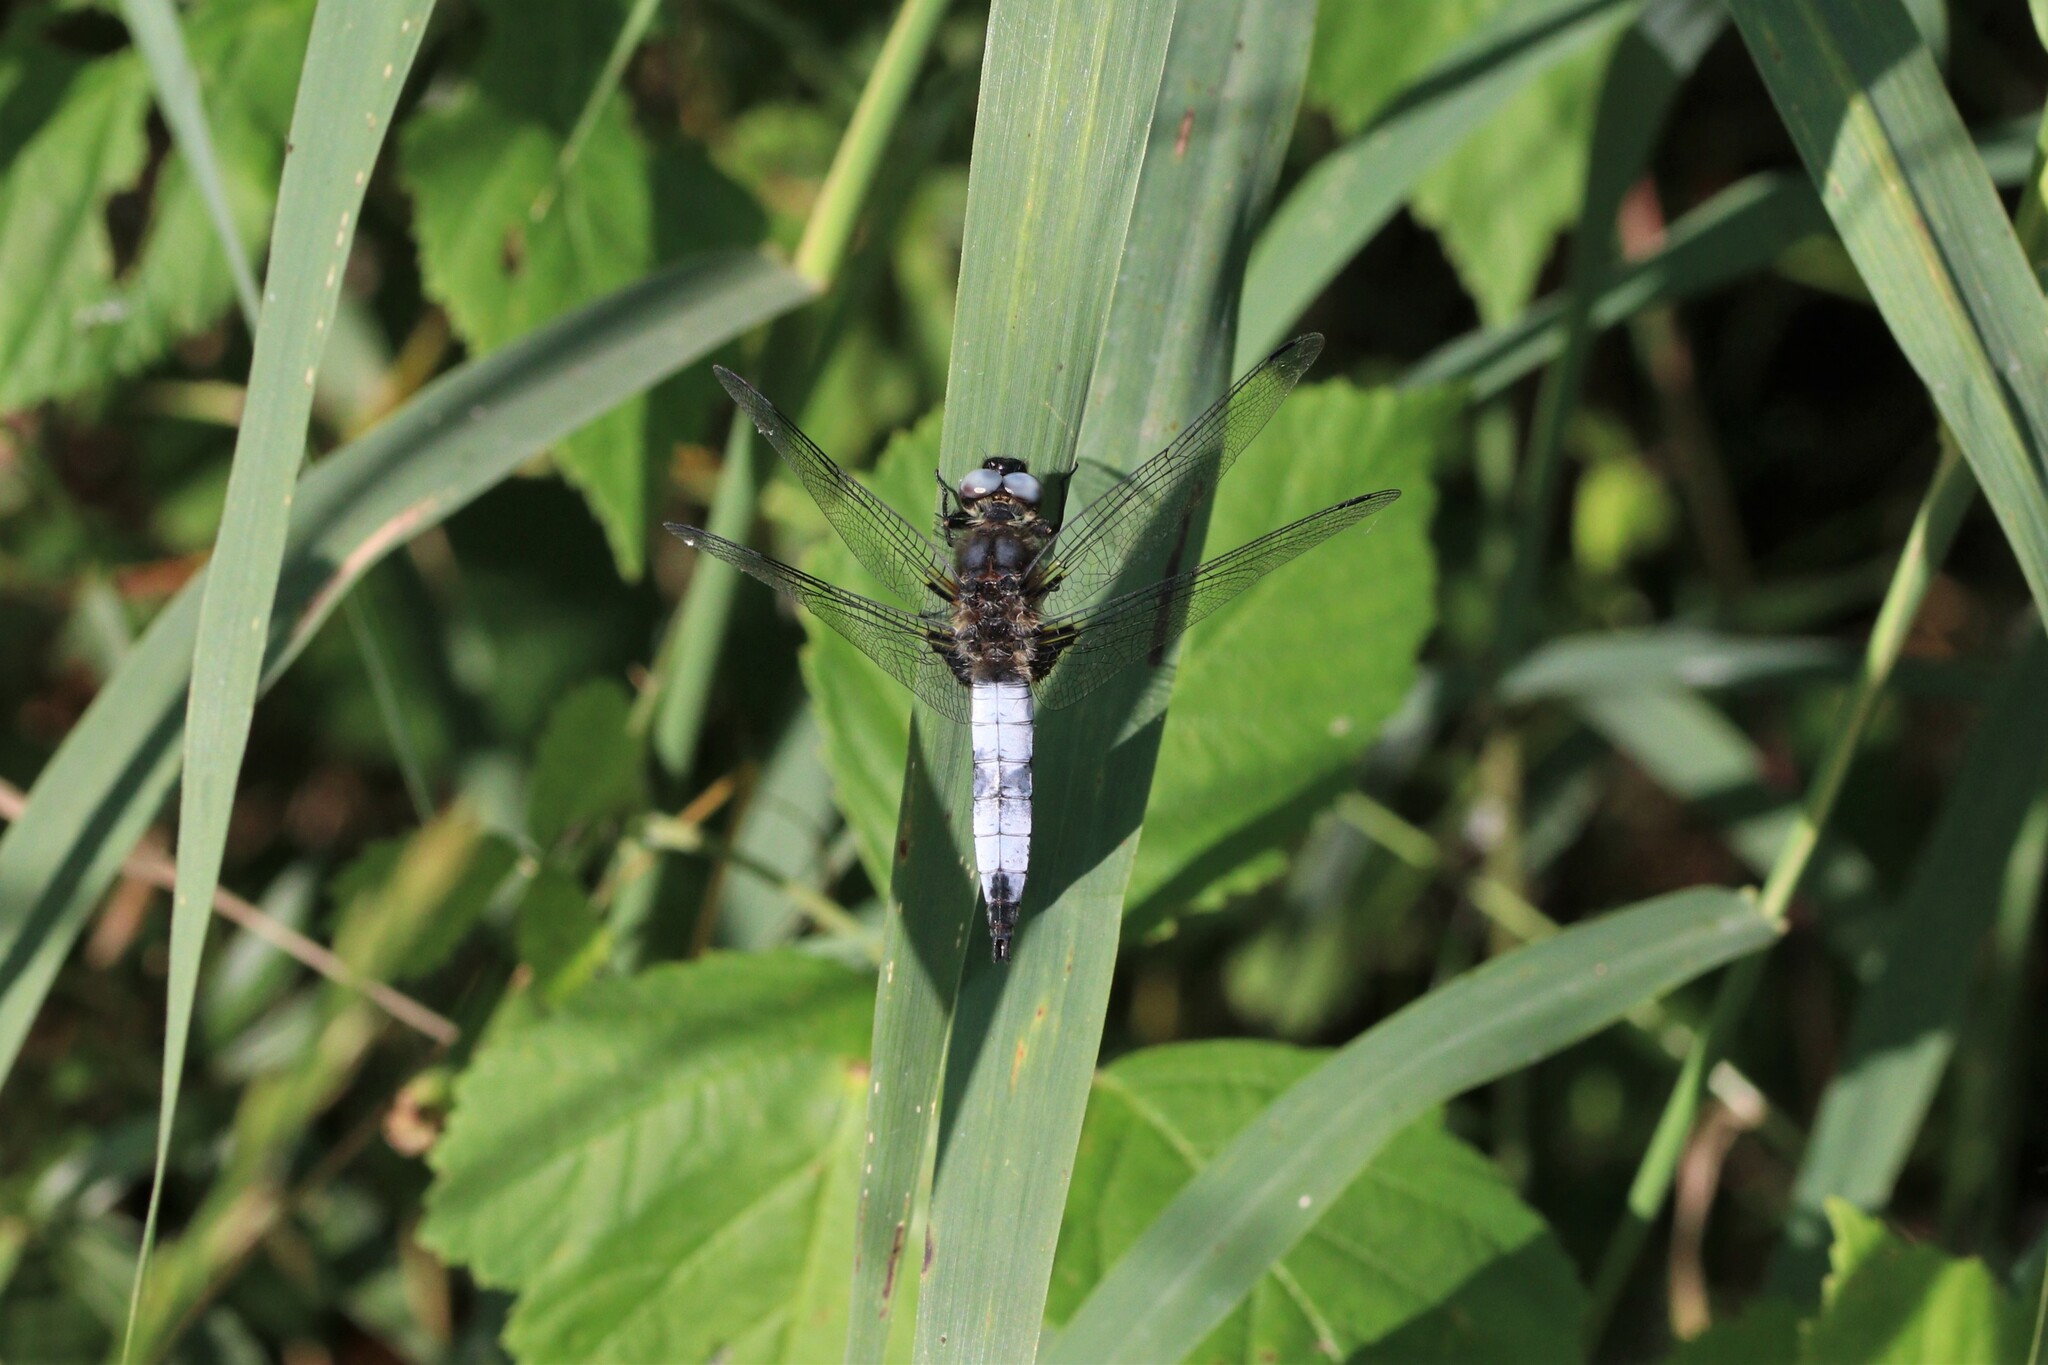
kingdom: Animalia
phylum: Arthropoda
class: Insecta
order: Odonata
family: Libellulidae
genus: Libellula
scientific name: Libellula fulva
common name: Blue chaser
